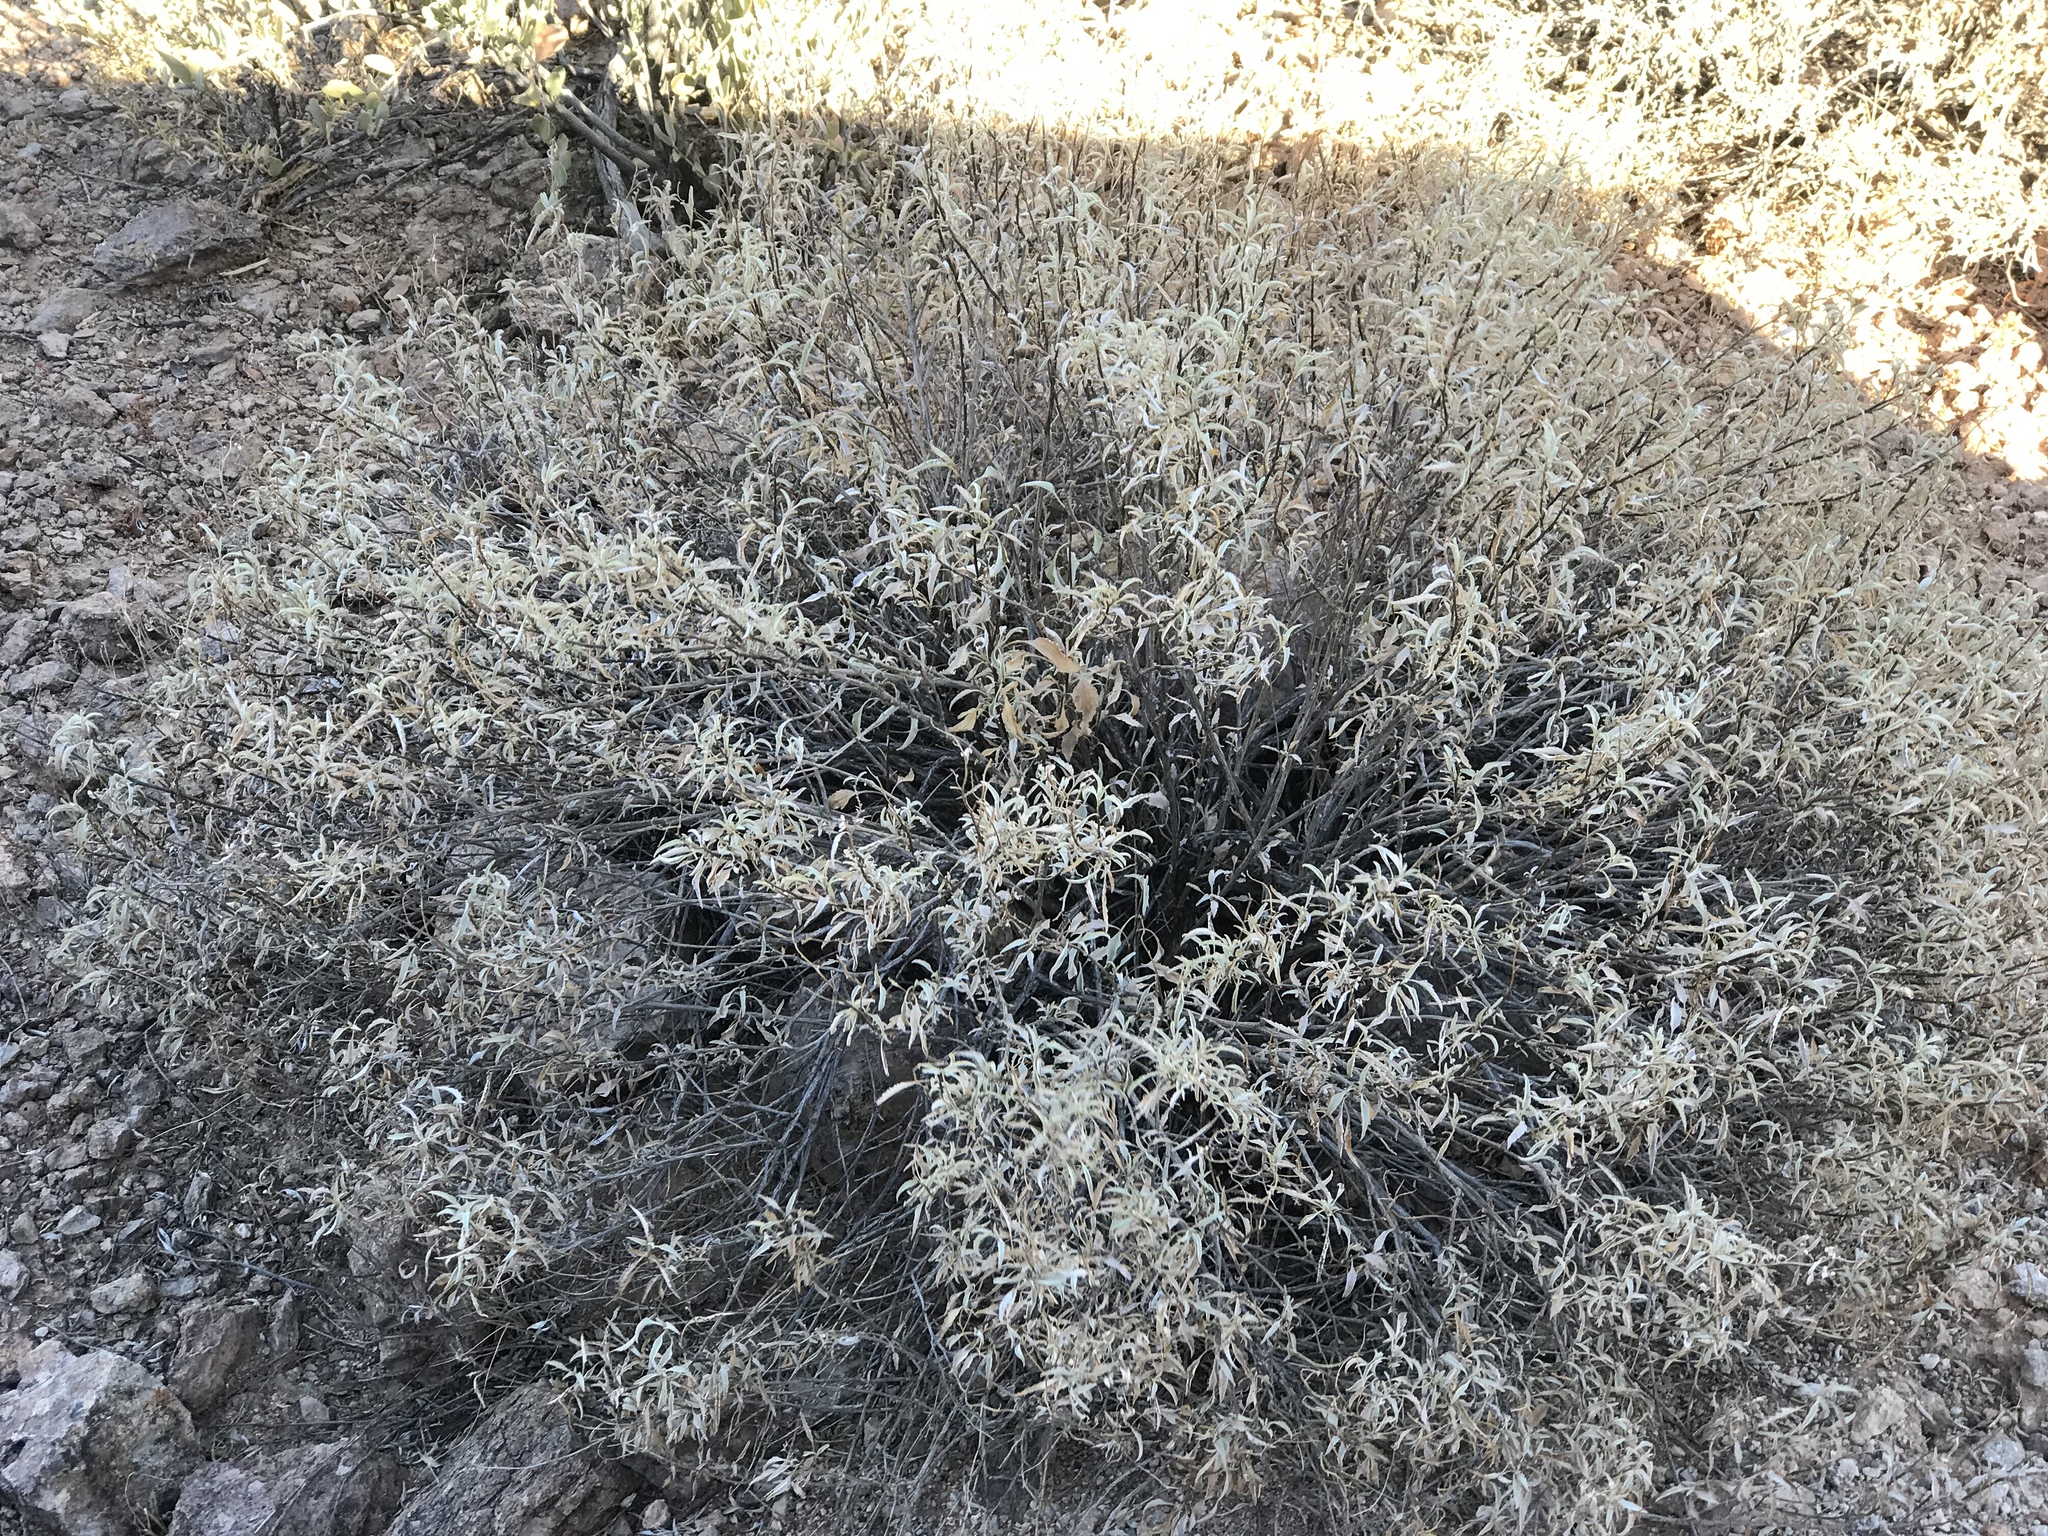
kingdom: Plantae
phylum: Tracheophyta
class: Magnoliopsida
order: Asterales
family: Asteraceae
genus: Ambrosia
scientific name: Ambrosia deltoidea
